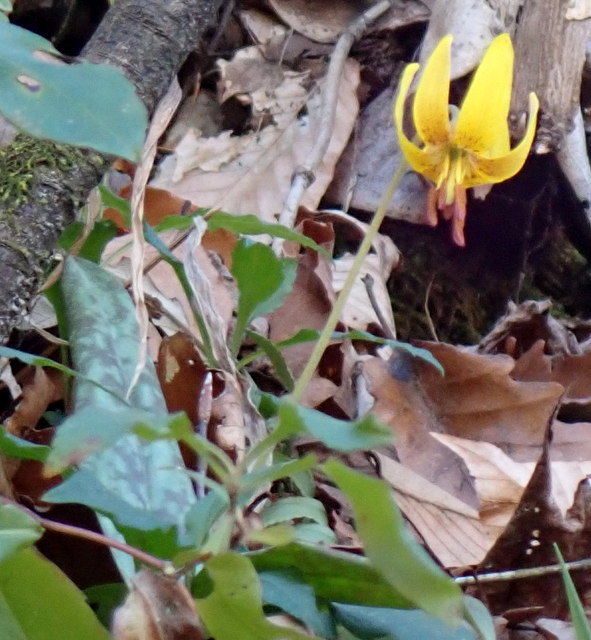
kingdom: Plantae
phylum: Tracheophyta
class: Liliopsida
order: Liliales
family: Liliaceae
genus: Erythronium
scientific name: Erythronium umbilicatum
